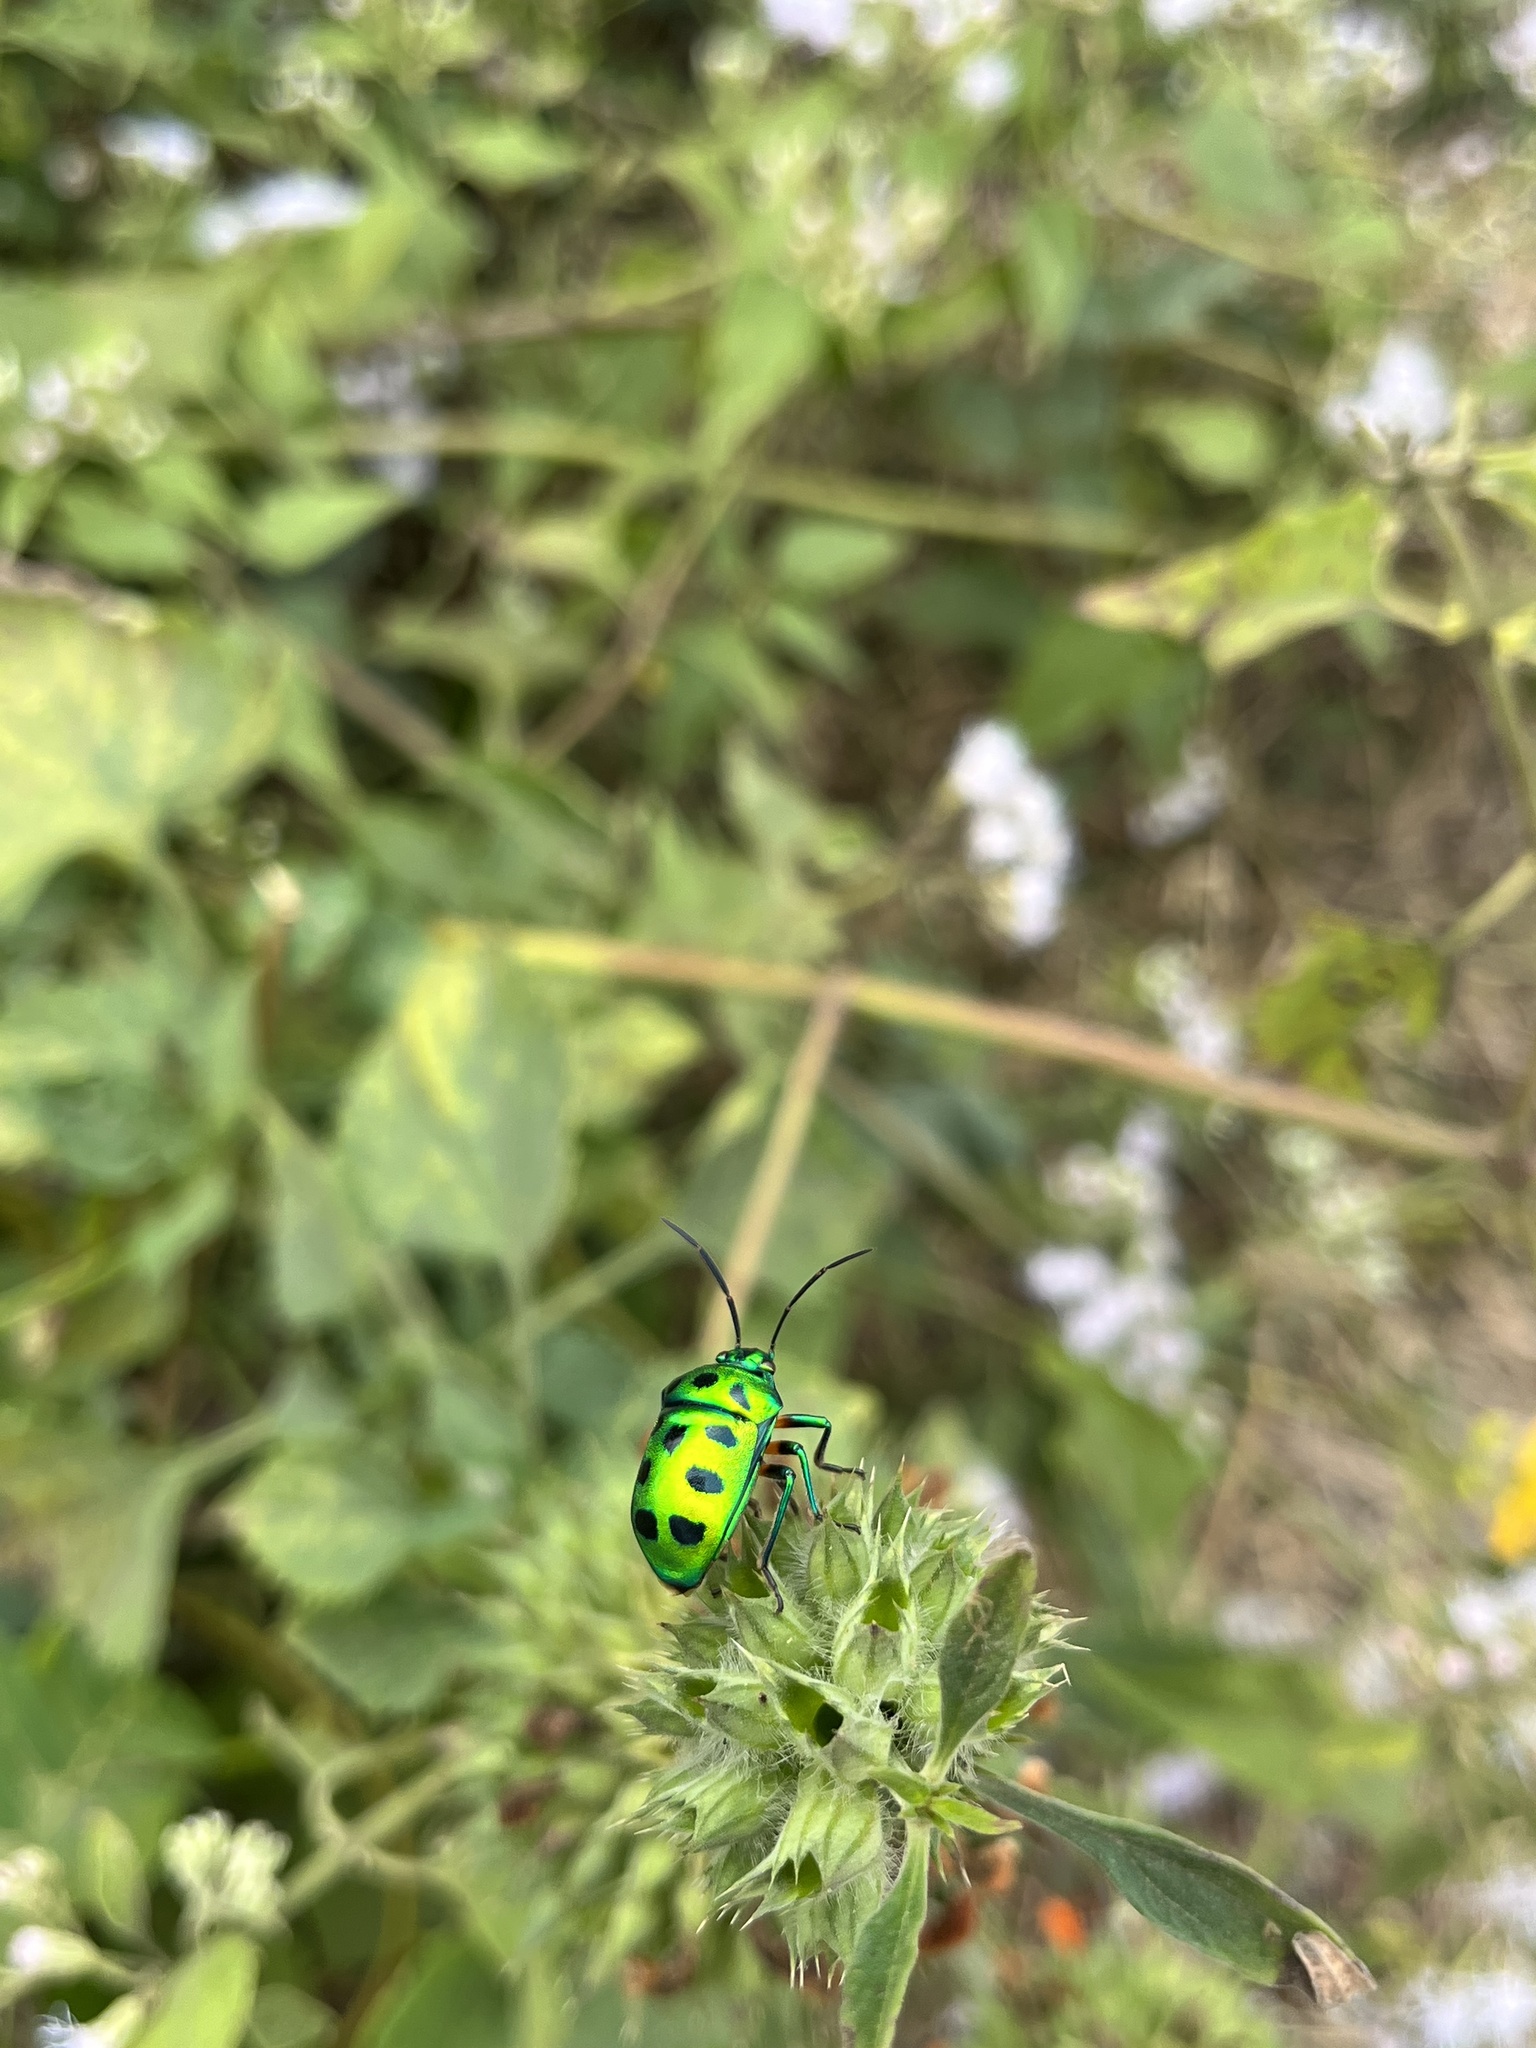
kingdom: Animalia
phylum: Arthropoda
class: Insecta
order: Hemiptera
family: Scutelleridae
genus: Chrysocoris
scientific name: Chrysocoris purpureus
